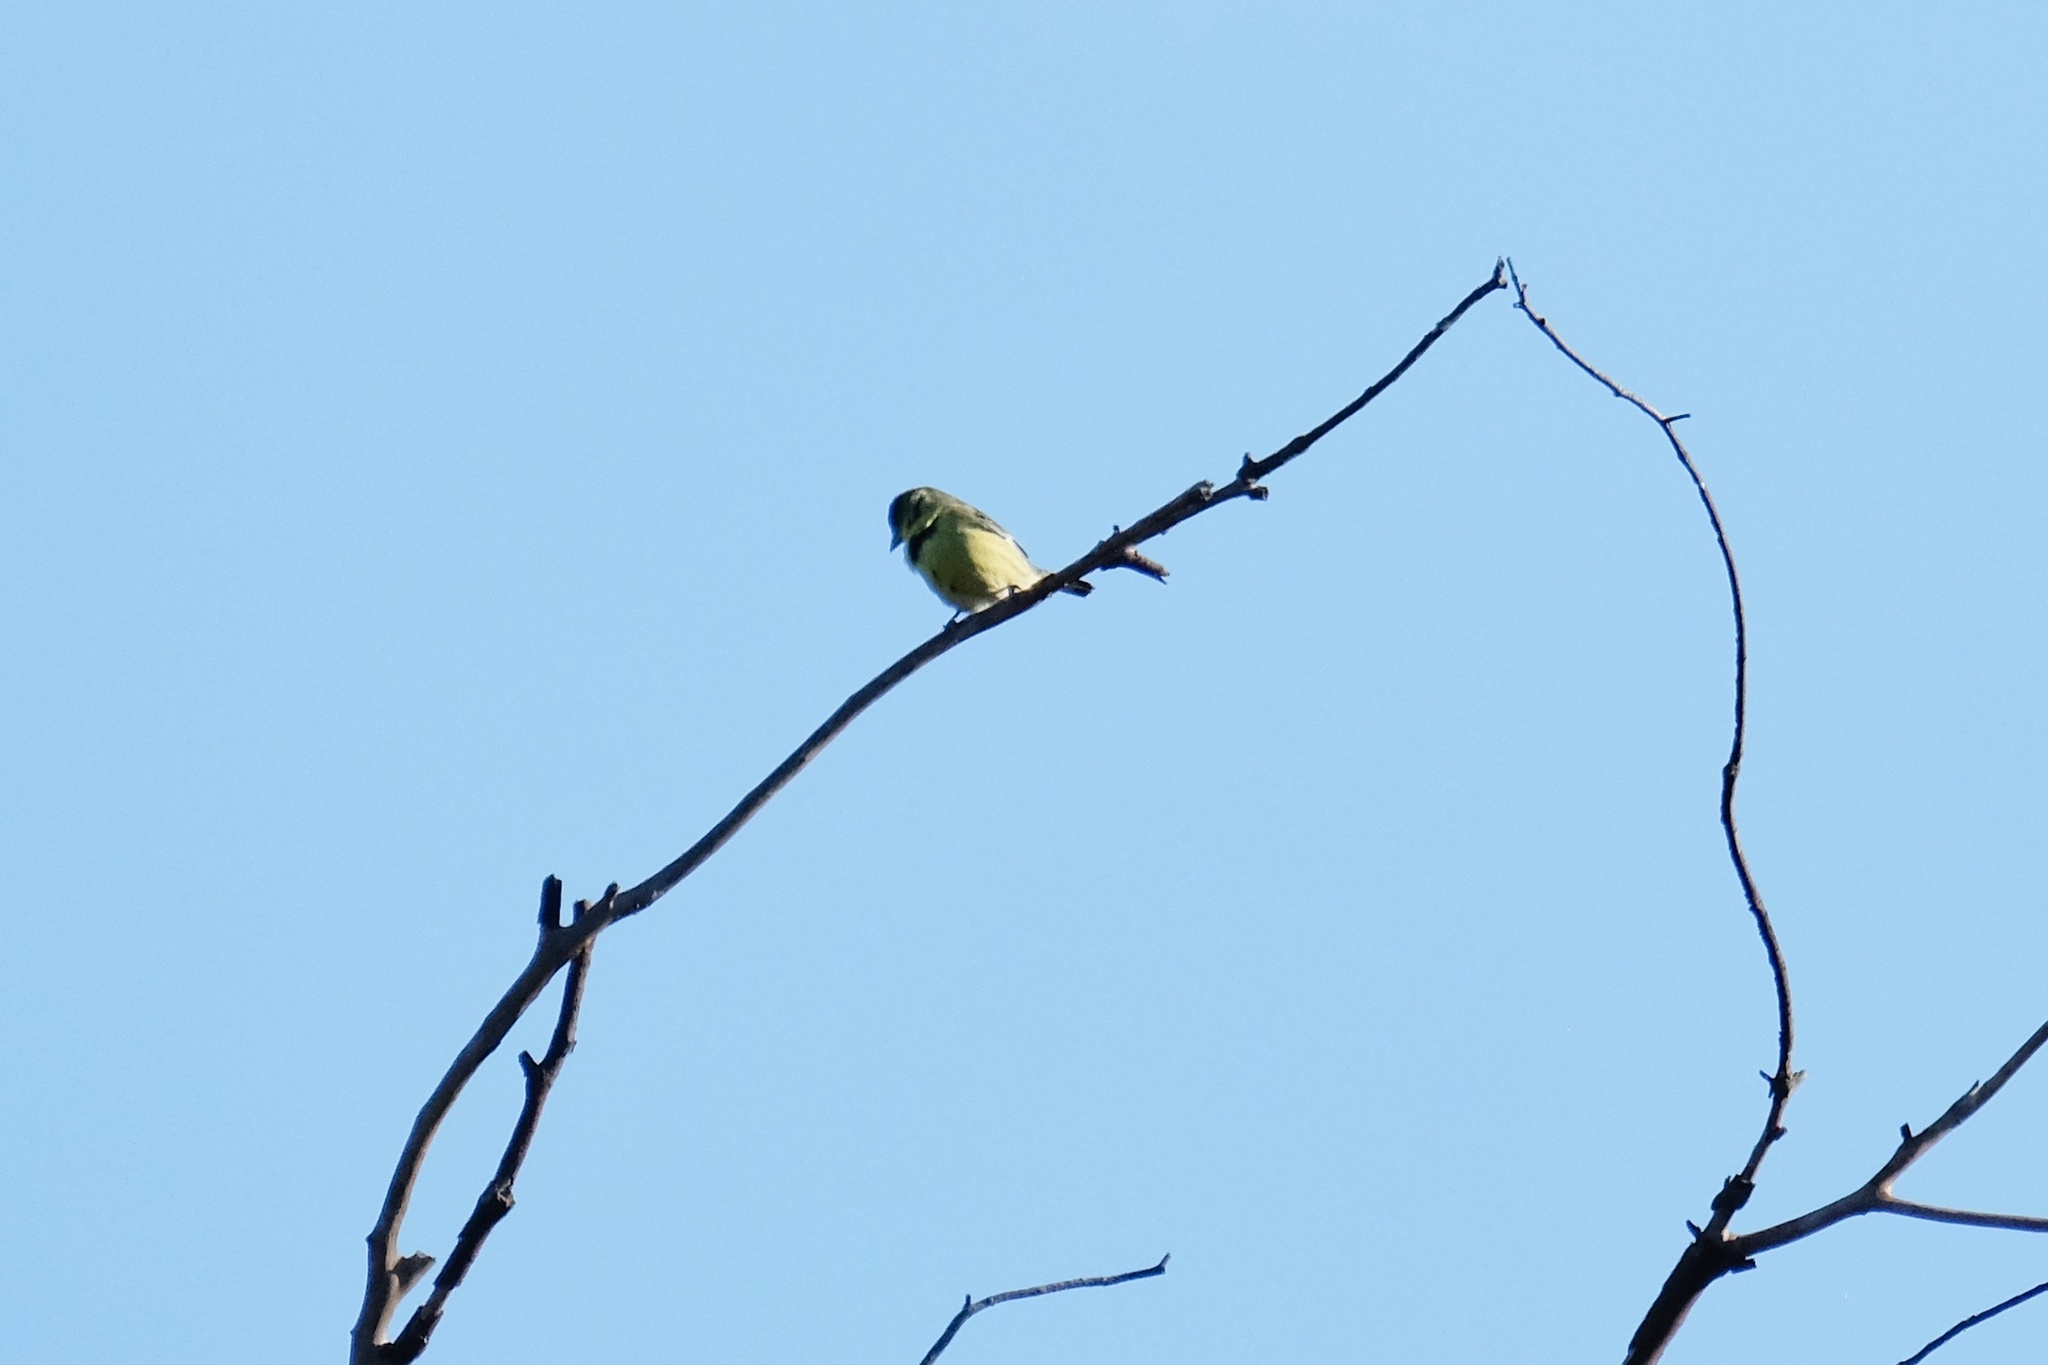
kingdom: Animalia
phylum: Chordata
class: Aves
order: Passeriformes
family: Fringillidae
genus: Spinus
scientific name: Spinus psaltria
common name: Lesser goldfinch
